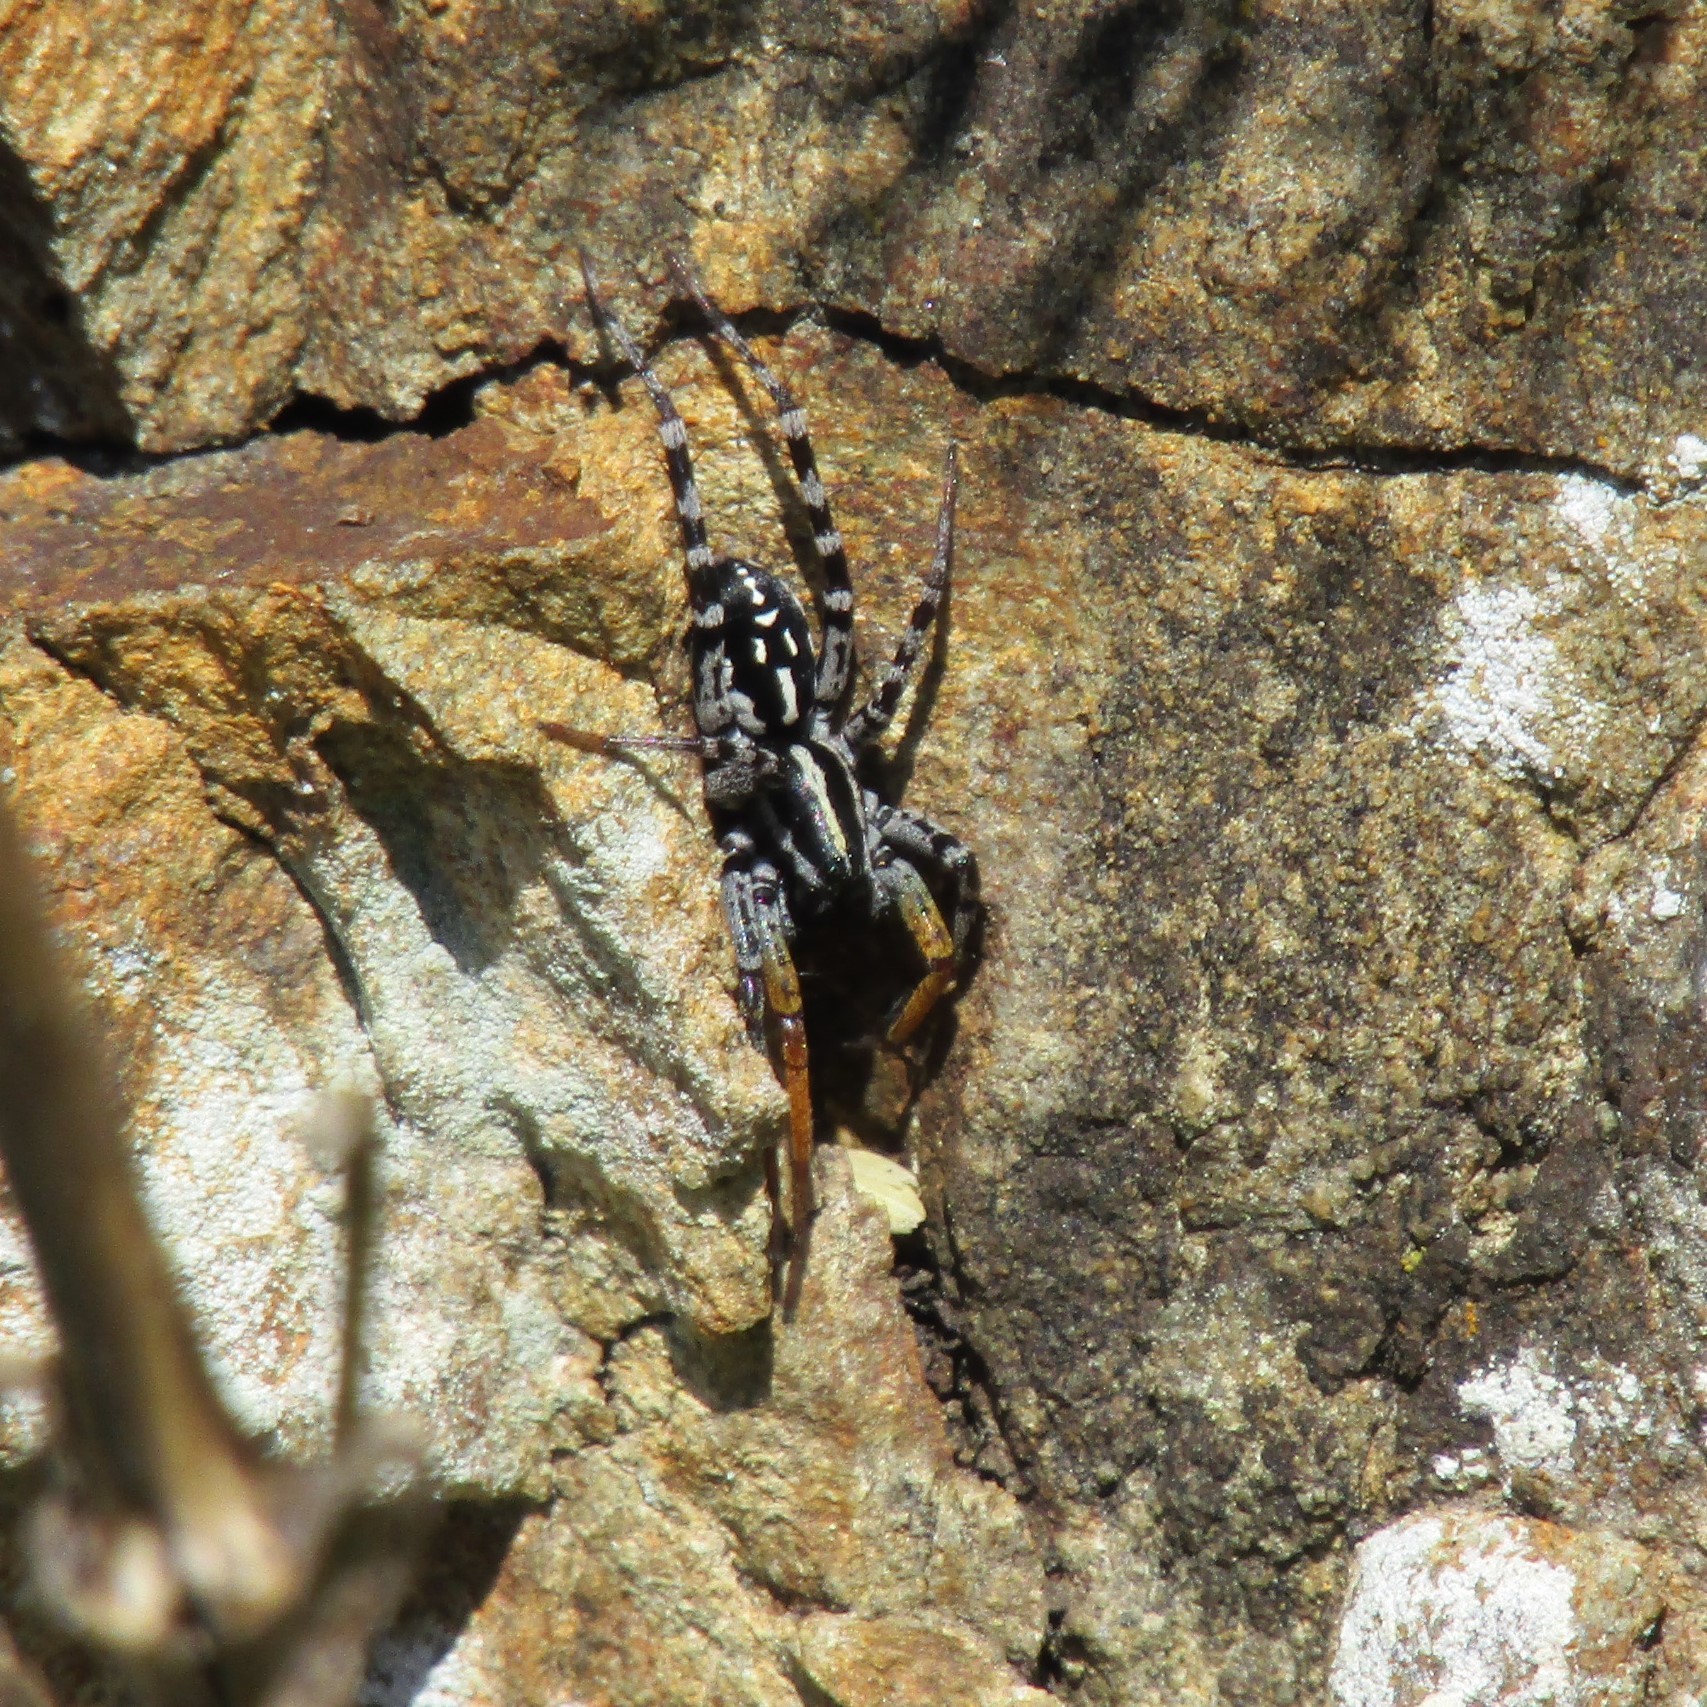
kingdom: Animalia
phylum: Arthropoda
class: Arachnida
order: Araneae
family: Corinnidae
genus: Nyssus
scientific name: Nyssus coloripes
